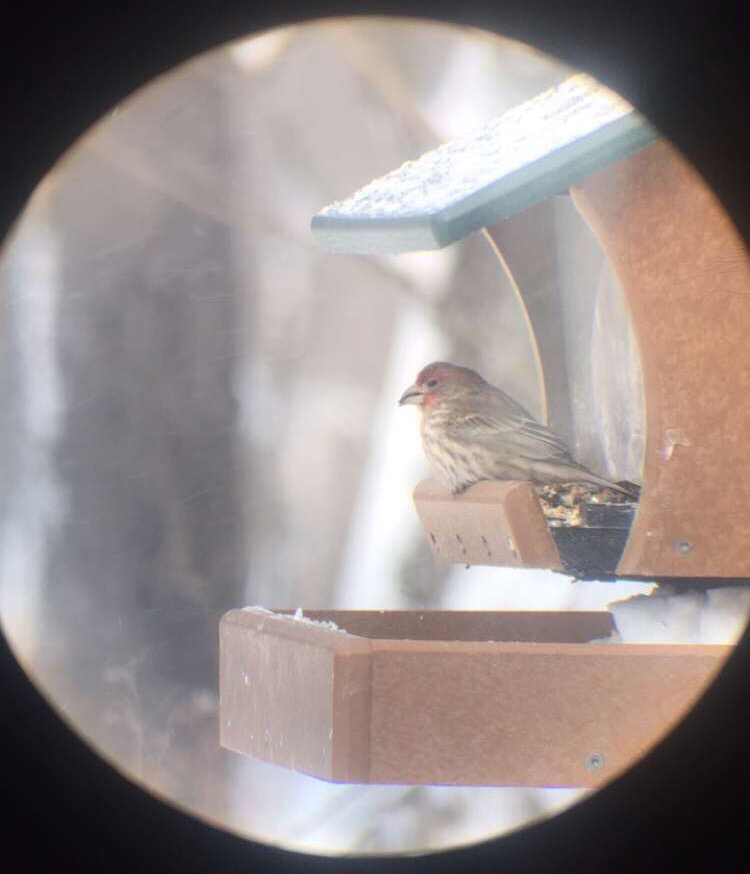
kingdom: Animalia
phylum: Chordata
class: Aves
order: Passeriformes
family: Fringillidae
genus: Haemorhous
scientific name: Haemorhous mexicanus
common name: House finch
